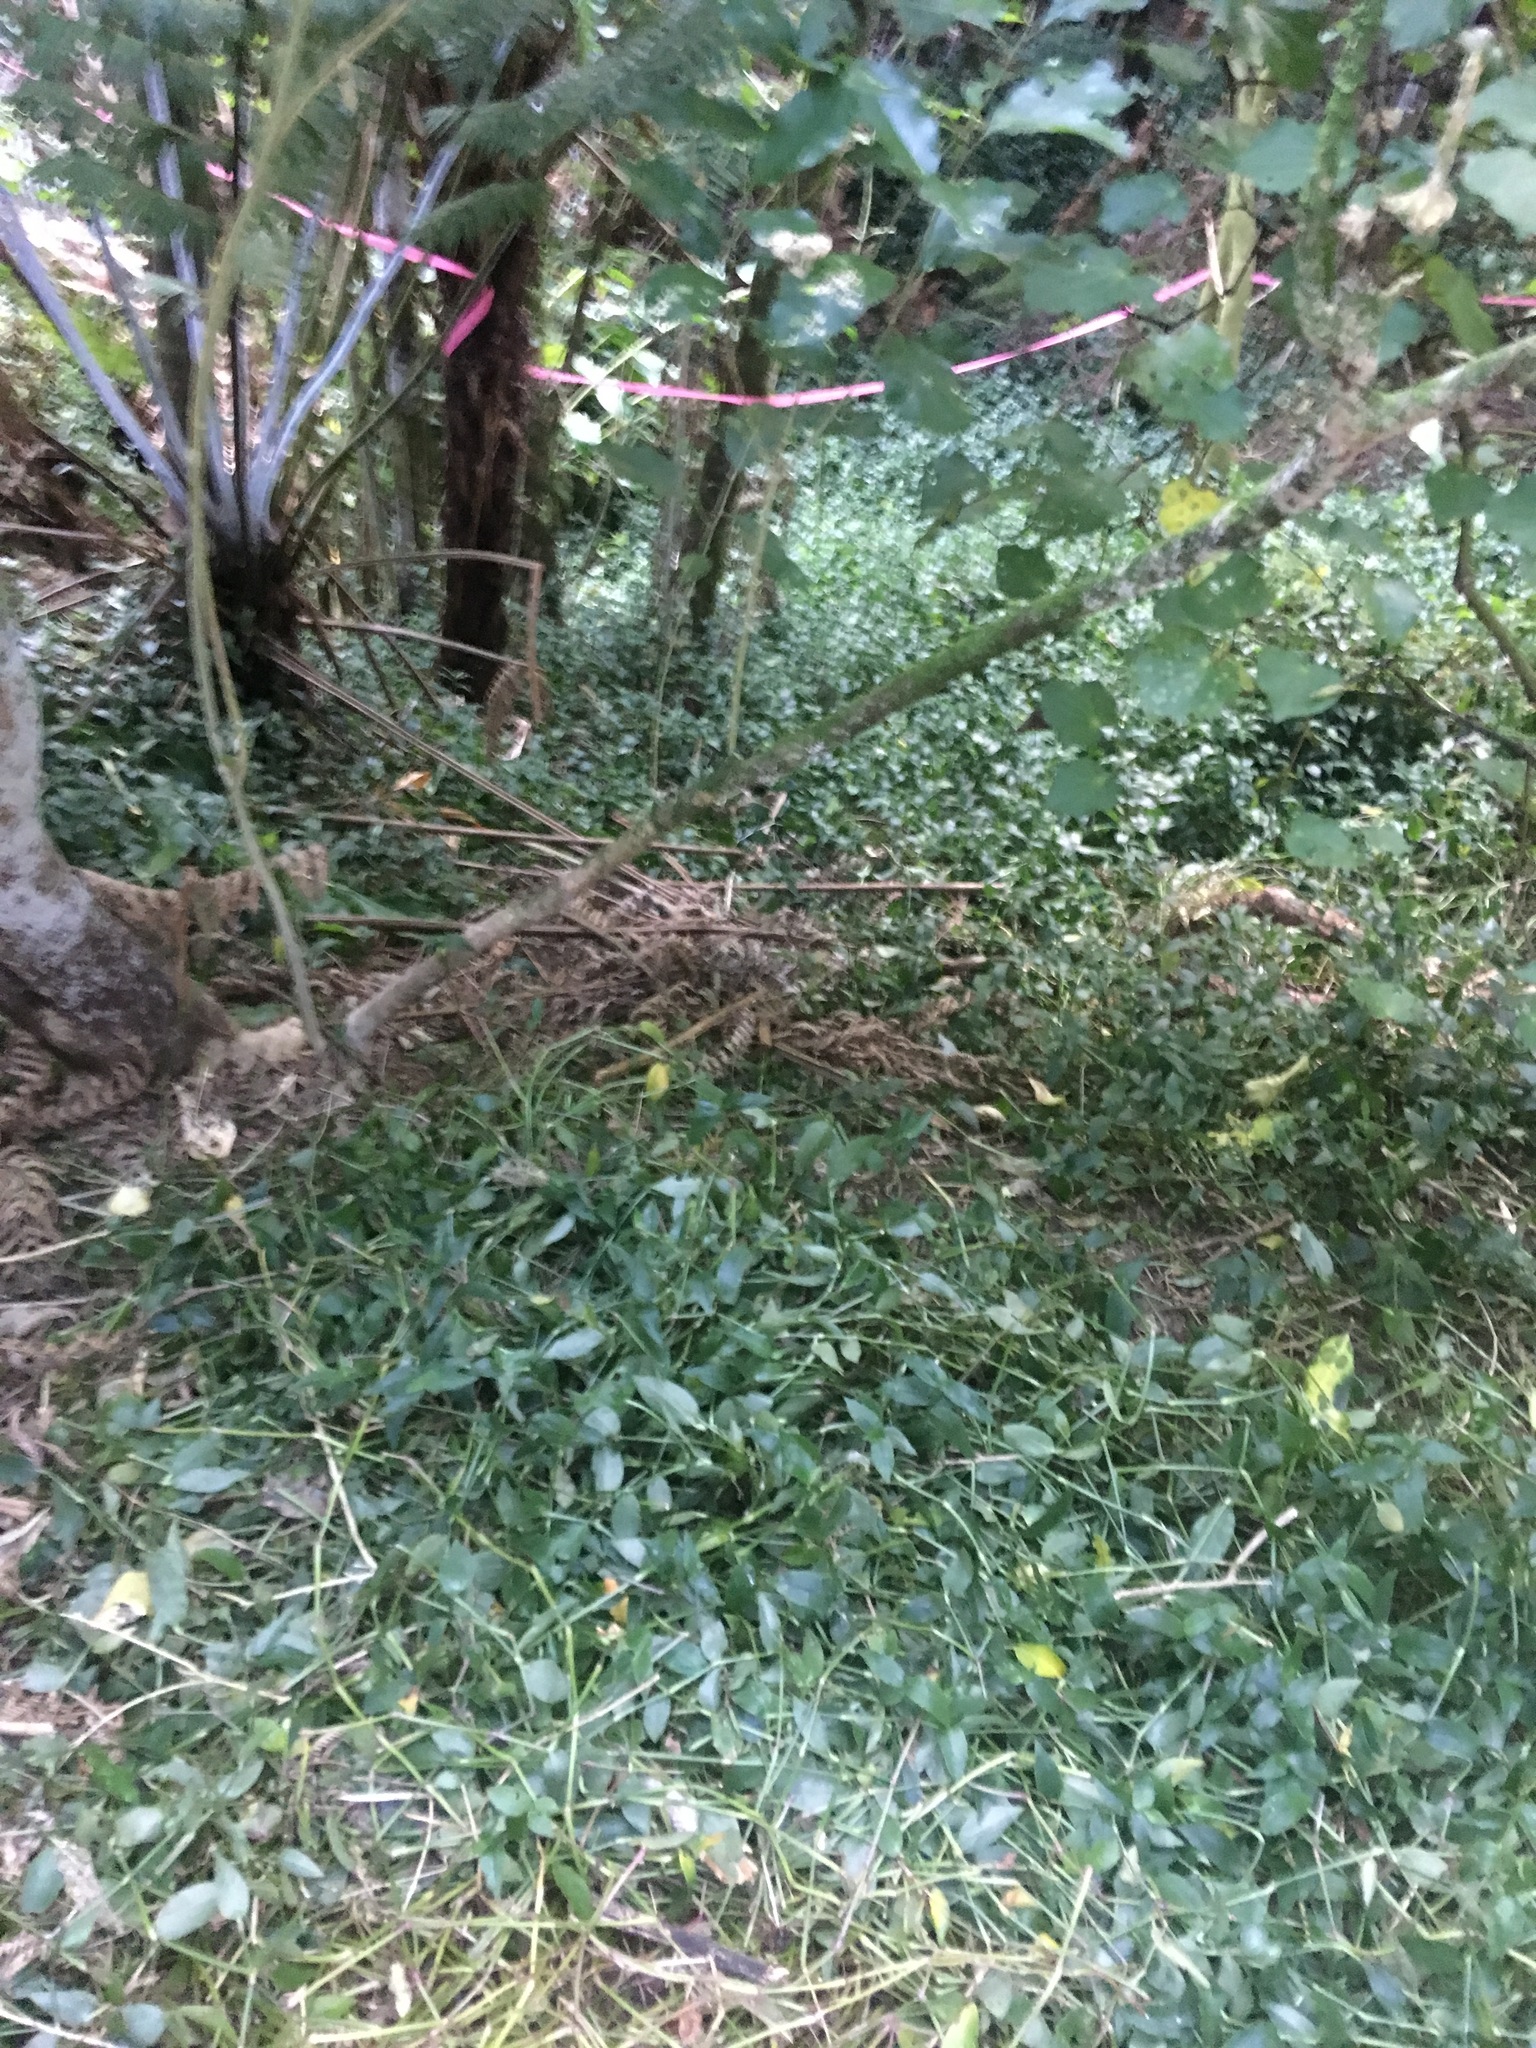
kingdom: Plantae
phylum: Tracheophyta
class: Liliopsida
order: Commelinales
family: Commelinaceae
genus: Tradescantia
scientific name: Tradescantia fluminensis
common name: Wandering-jew
